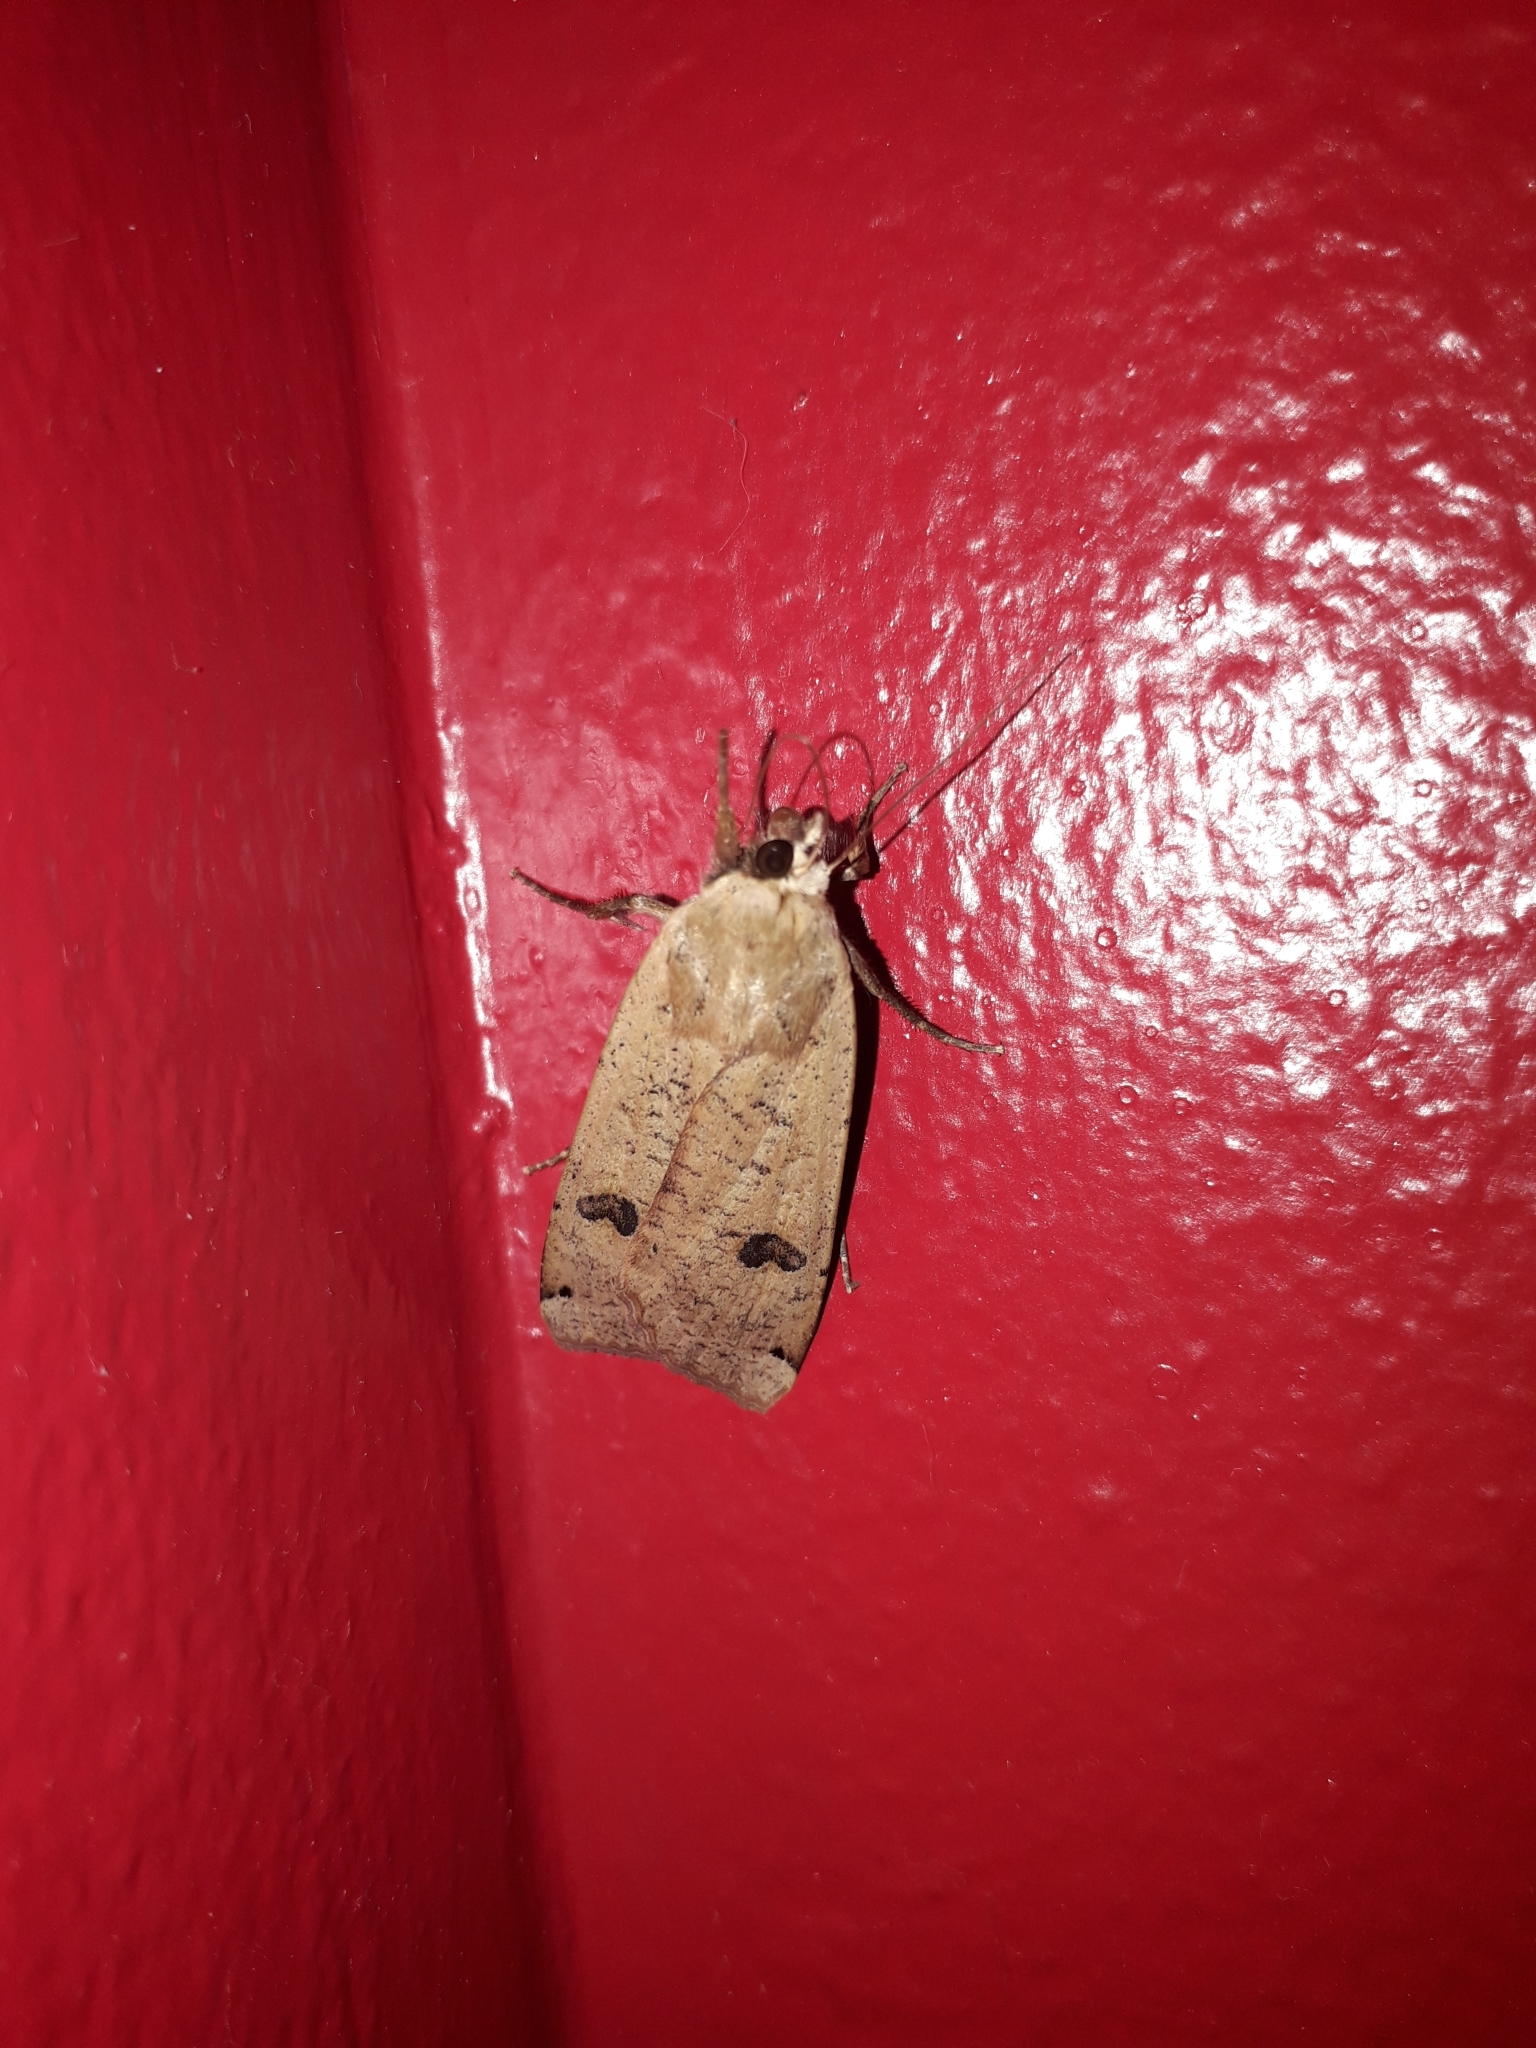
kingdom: Animalia
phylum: Arthropoda
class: Insecta
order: Lepidoptera
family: Noctuidae
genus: Noctua
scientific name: Noctua pronuba
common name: Large yellow underwing
